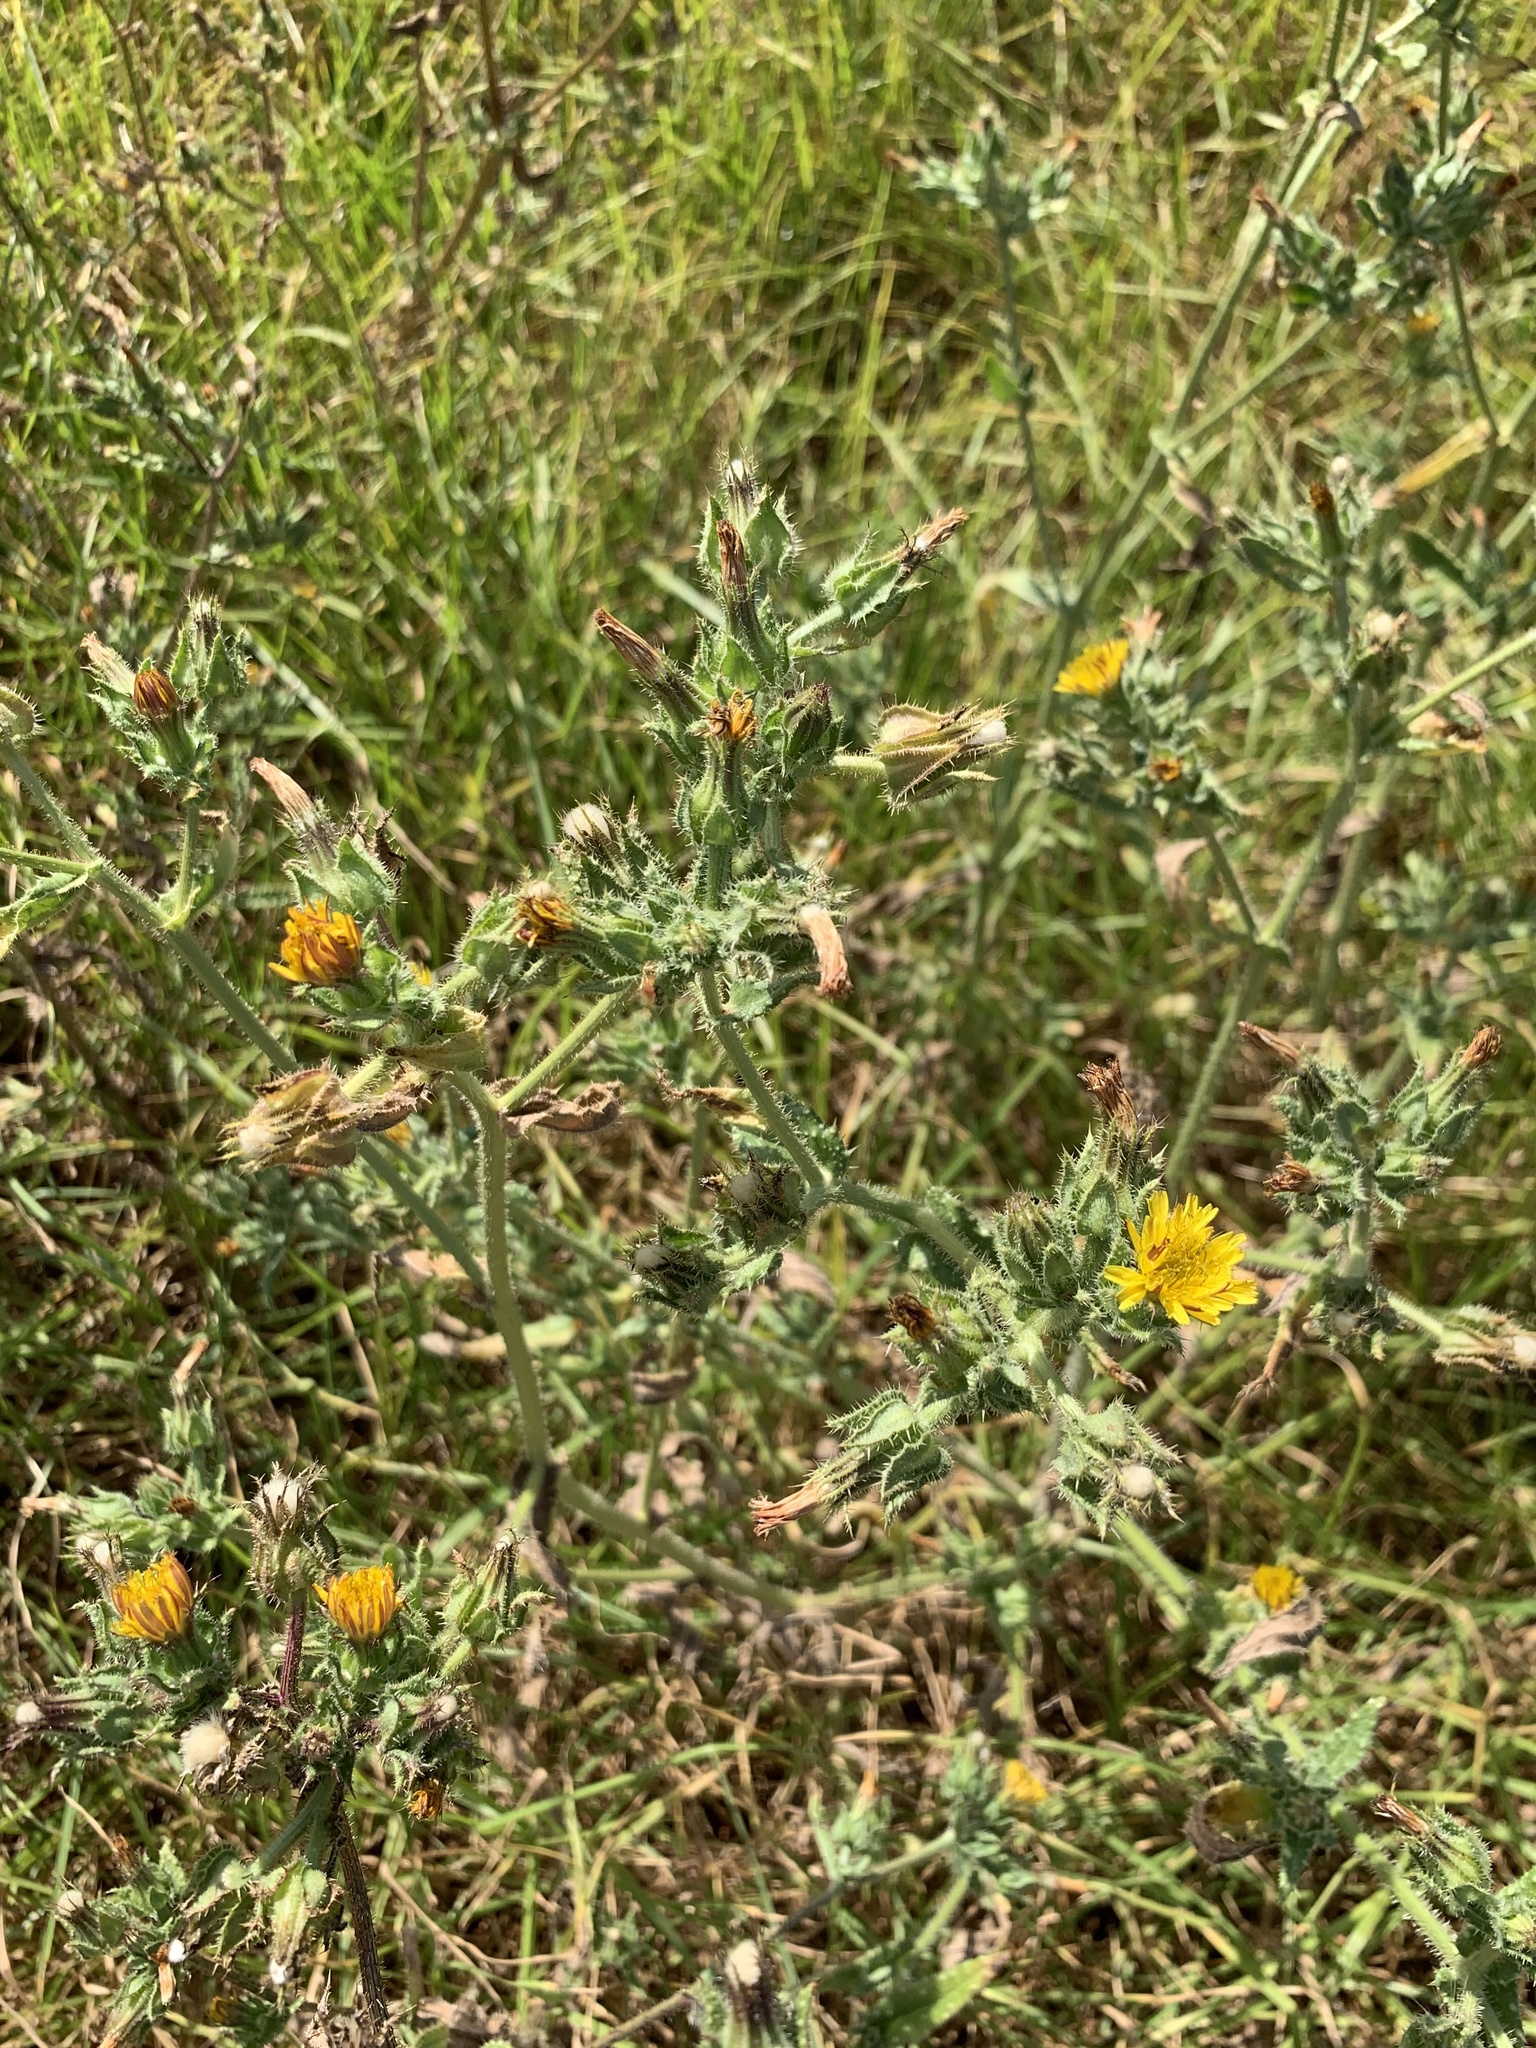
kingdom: Plantae
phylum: Tracheophyta
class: Magnoliopsida
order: Asterales
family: Asteraceae
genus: Helminthotheca
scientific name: Helminthotheca echioides
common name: Ox-tongue
